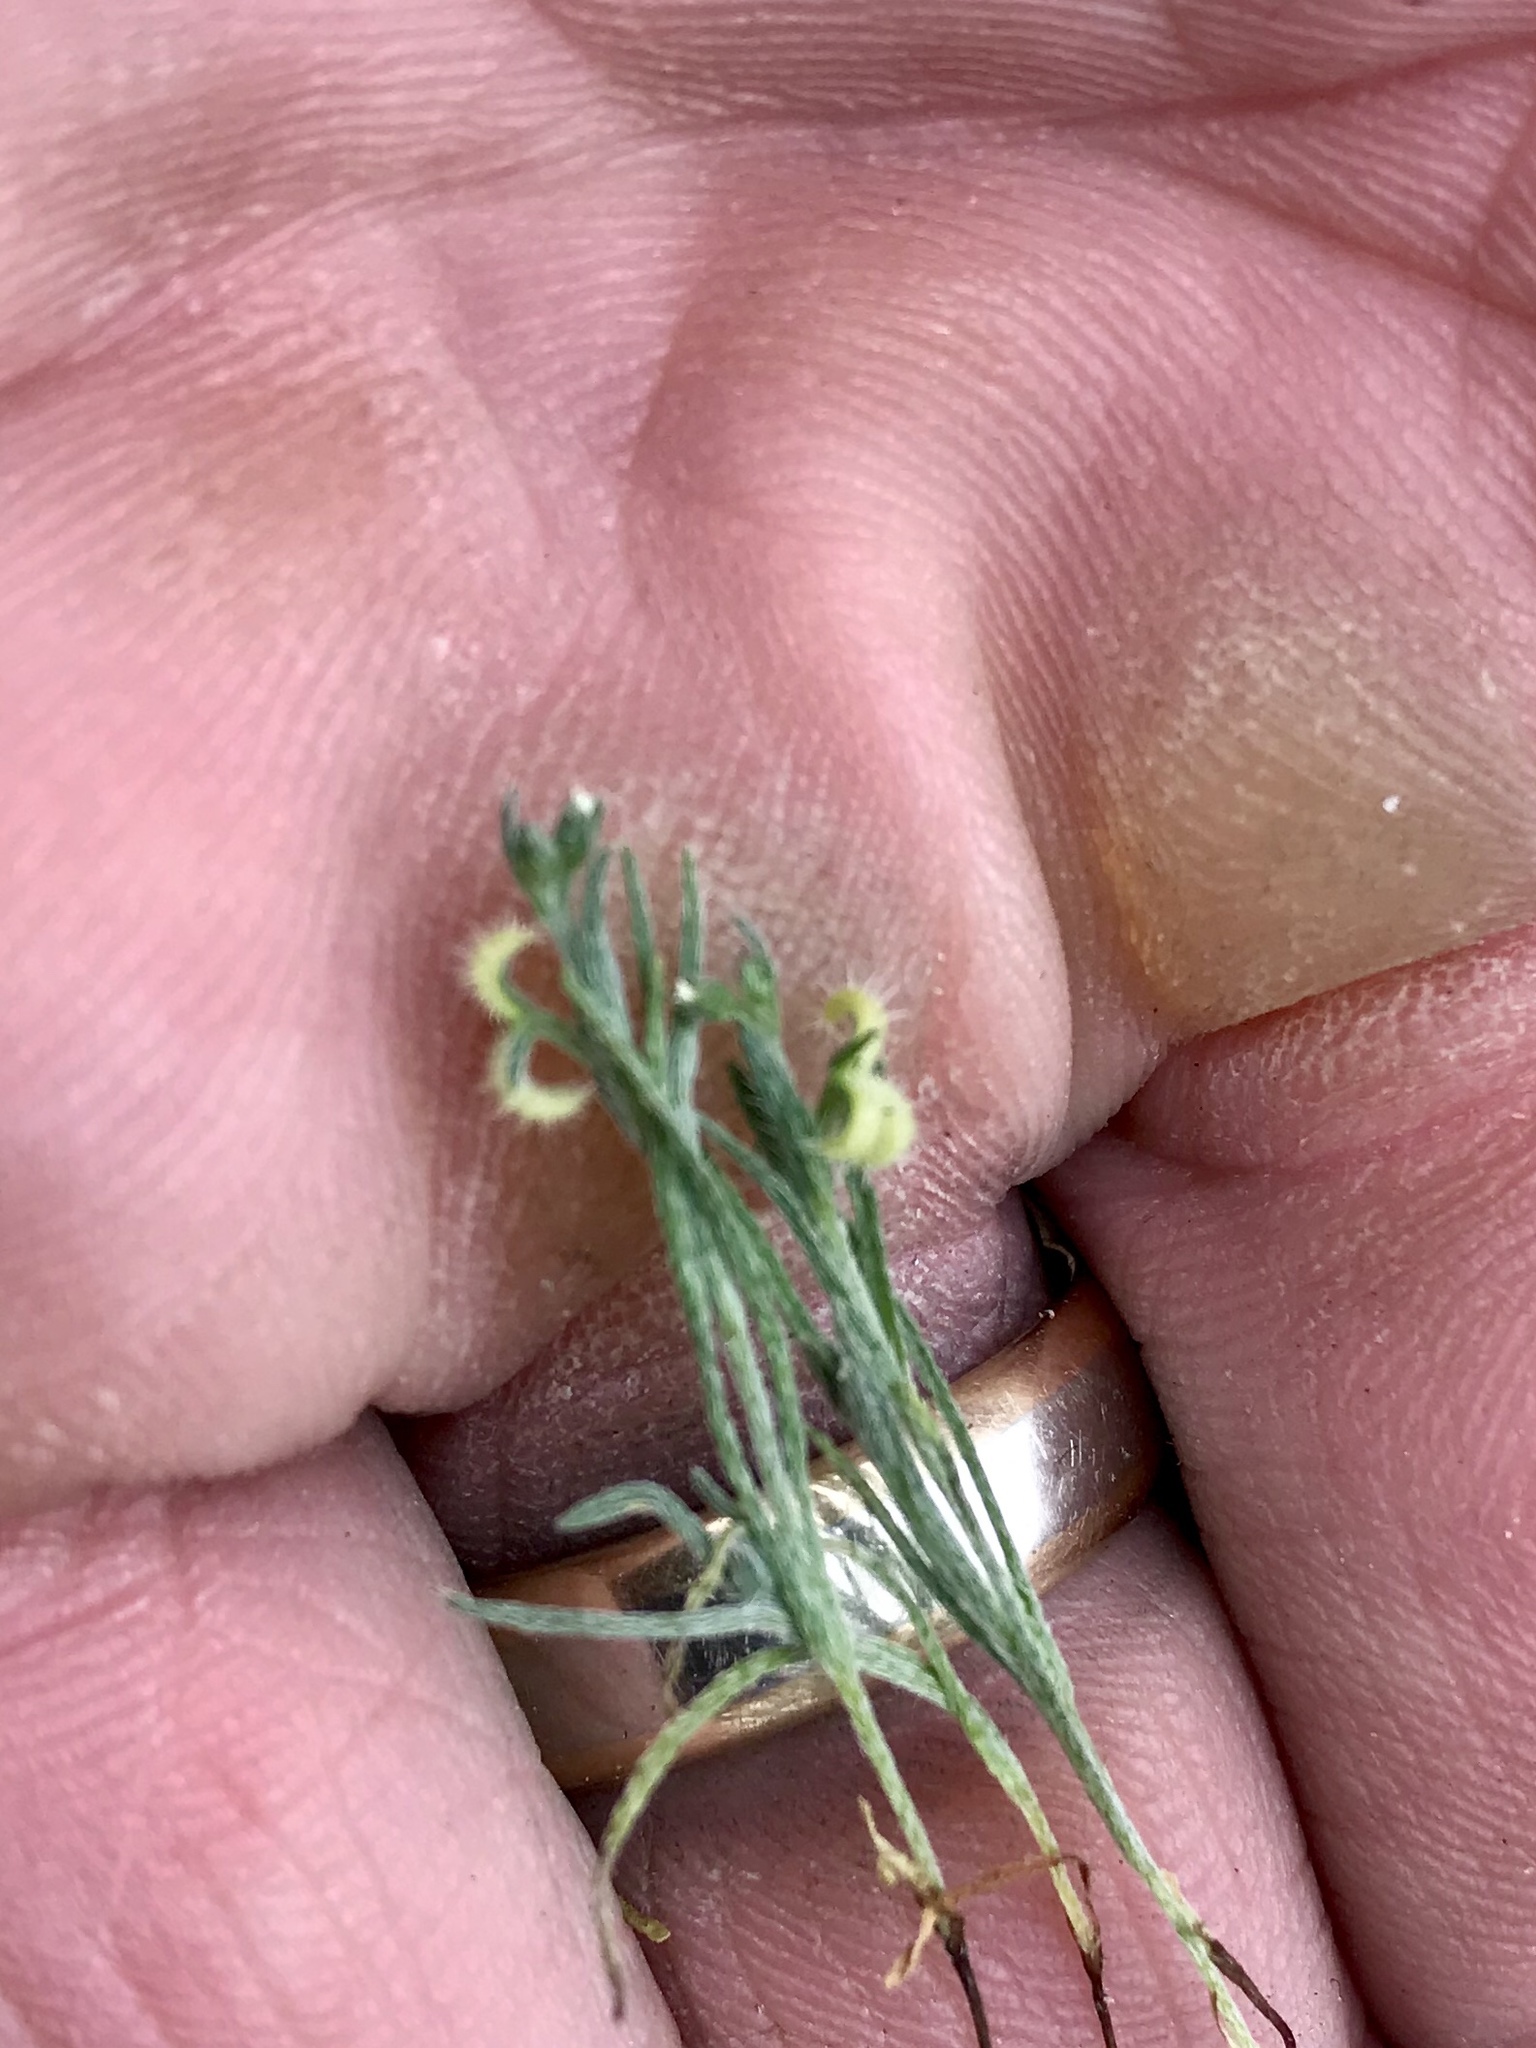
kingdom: Plantae
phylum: Tracheophyta
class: Magnoliopsida
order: Boraginales
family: Boraginaceae
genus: Pectocarya
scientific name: Pectocarya recurvata
